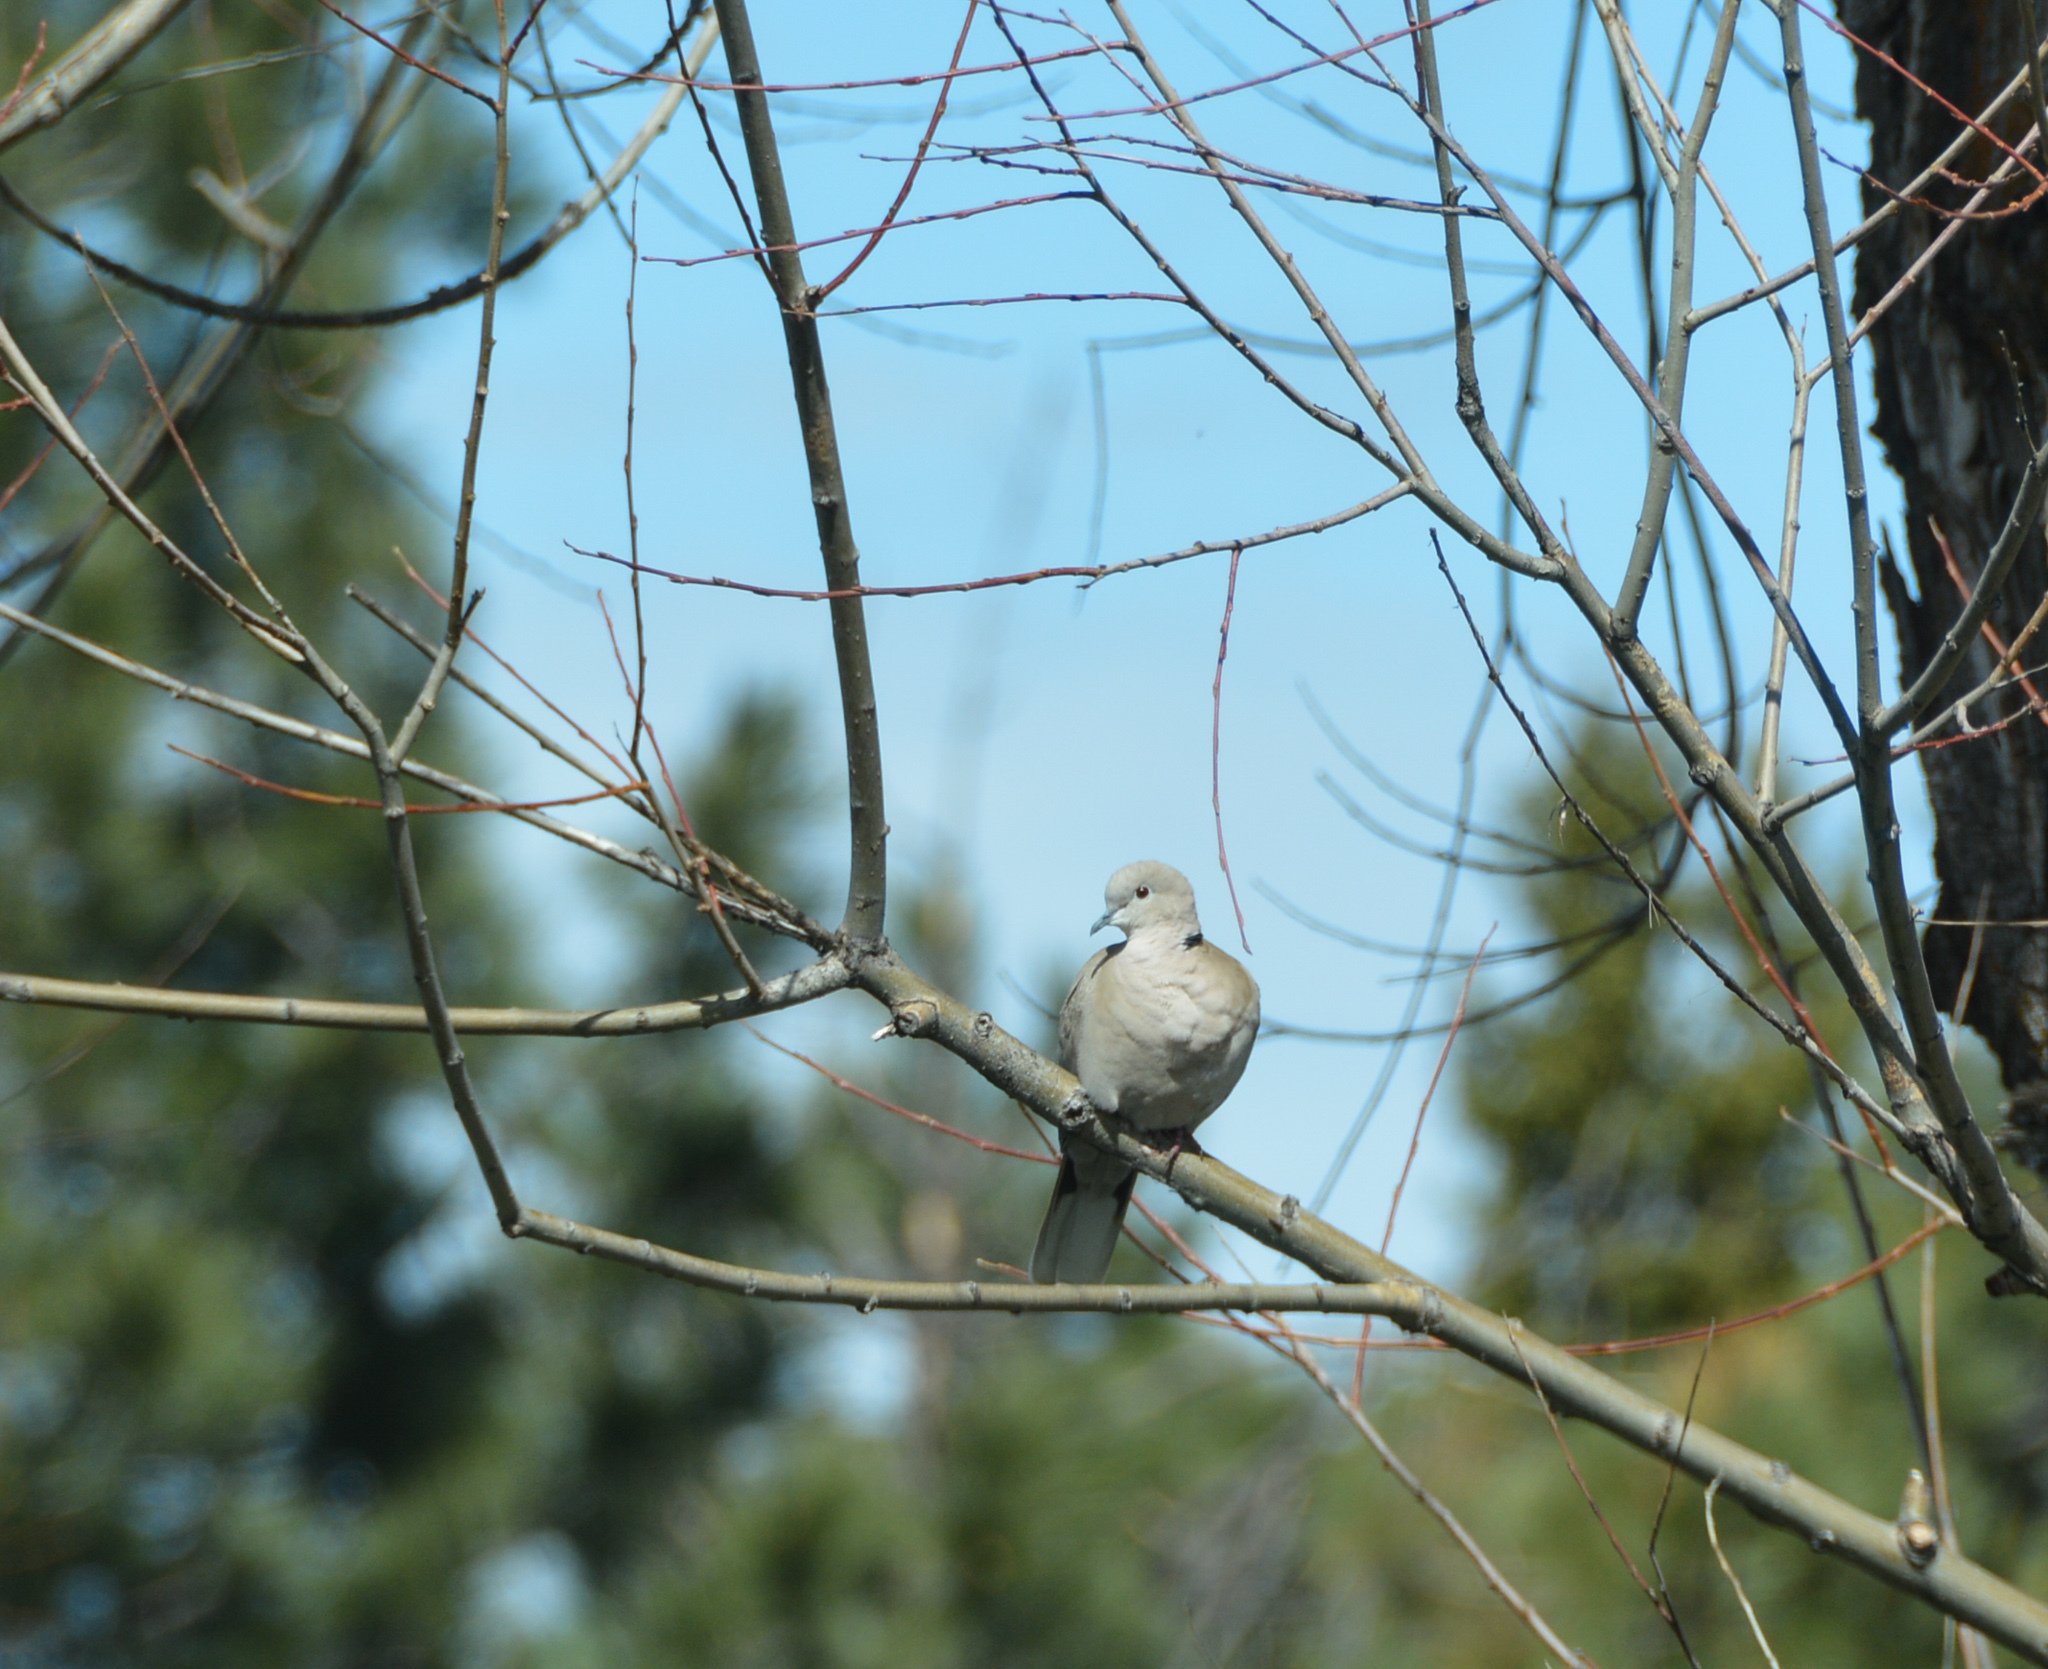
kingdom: Animalia
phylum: Chordata
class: Aves
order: Columbiformes
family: Columbidae
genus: Streptopelia
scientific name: Streptopelia decaocto
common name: Eurasian collared dove
